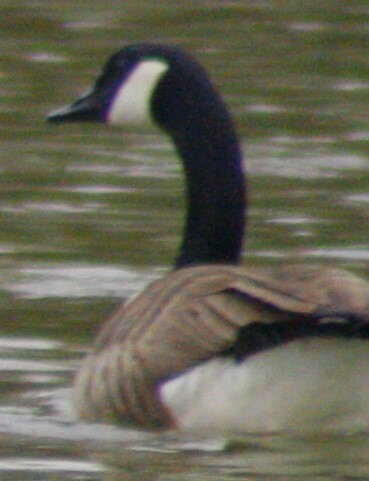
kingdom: Animalia
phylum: Chordata
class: Aves
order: Anseriformes
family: Anatidae
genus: Branta
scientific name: Branta canadensis
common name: Canada goose
